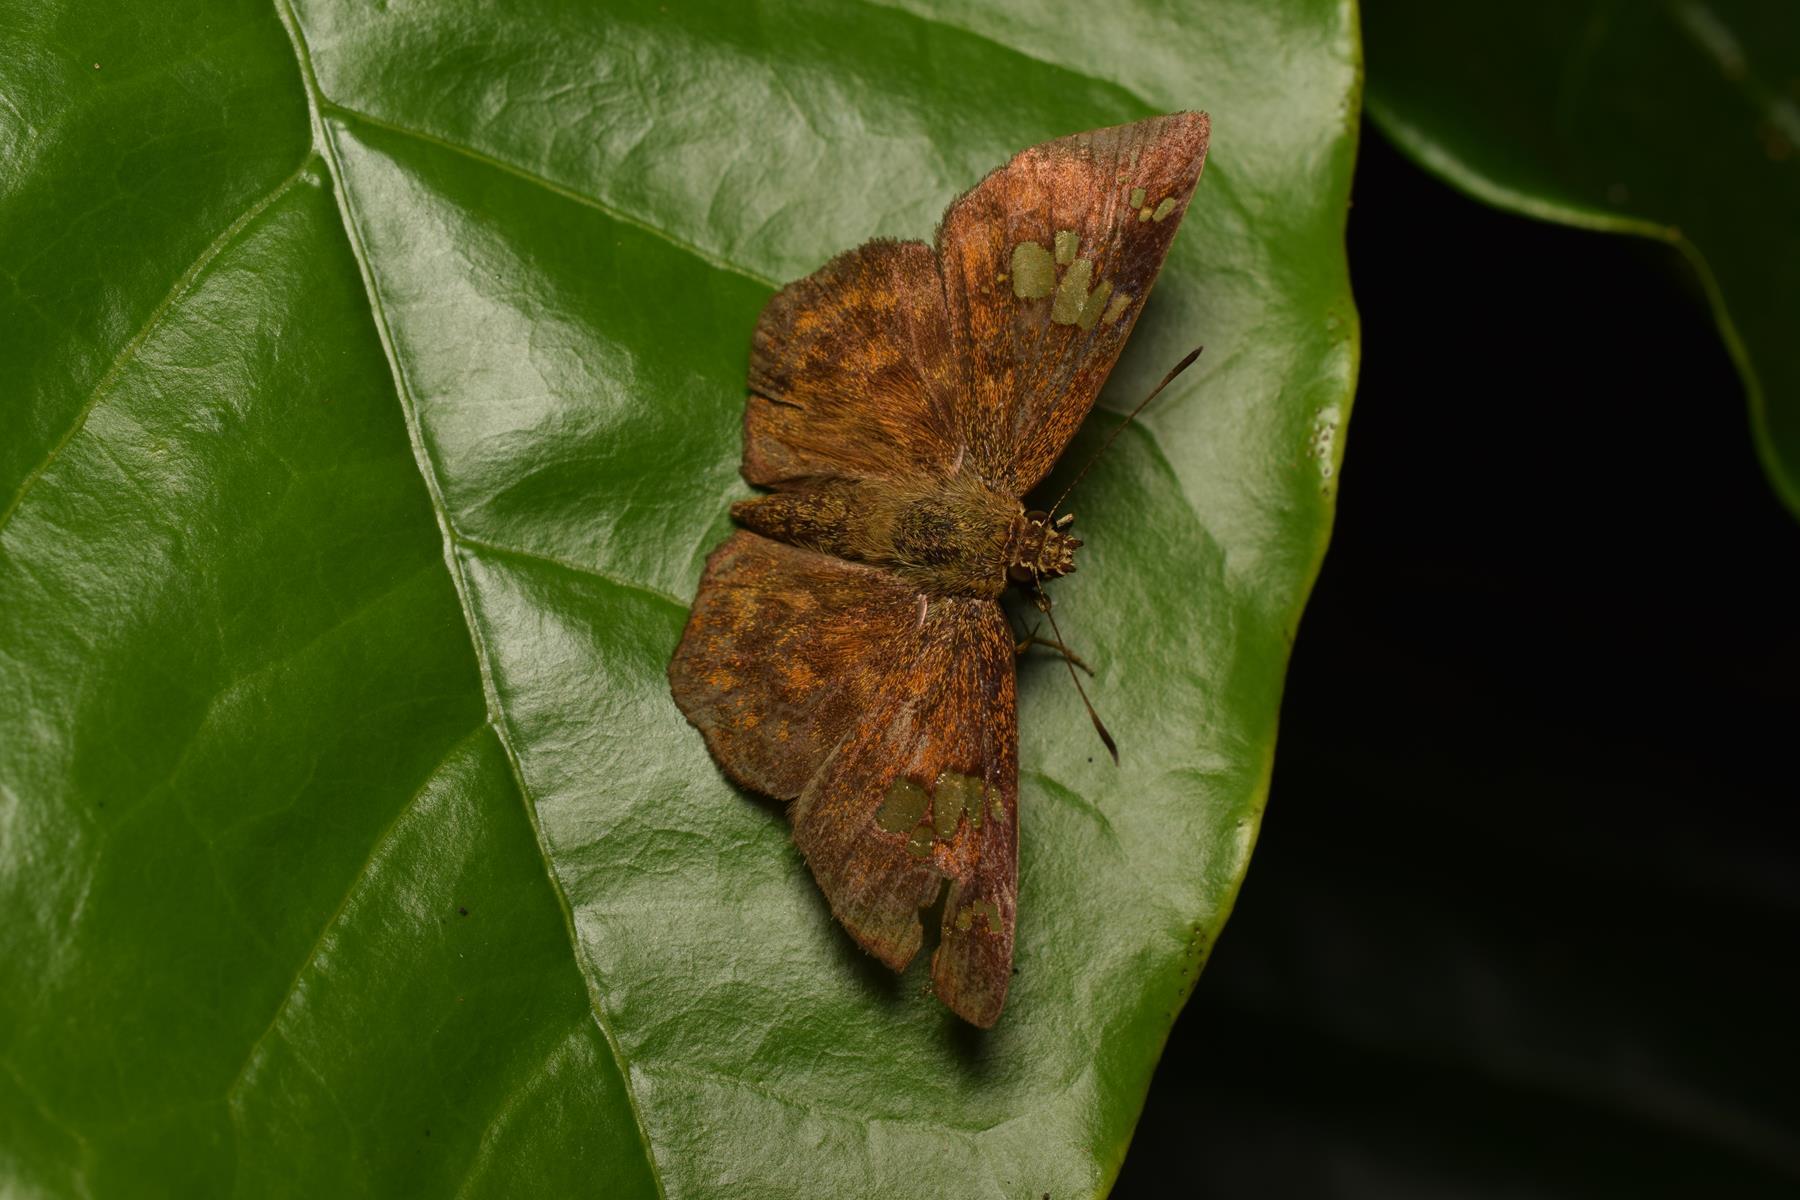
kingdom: Animalia
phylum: Arthropoda
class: Insecta
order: Lepidoptera
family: Hesperiidae
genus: Pseudocoladenia
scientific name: Pseudocoladenia dan
